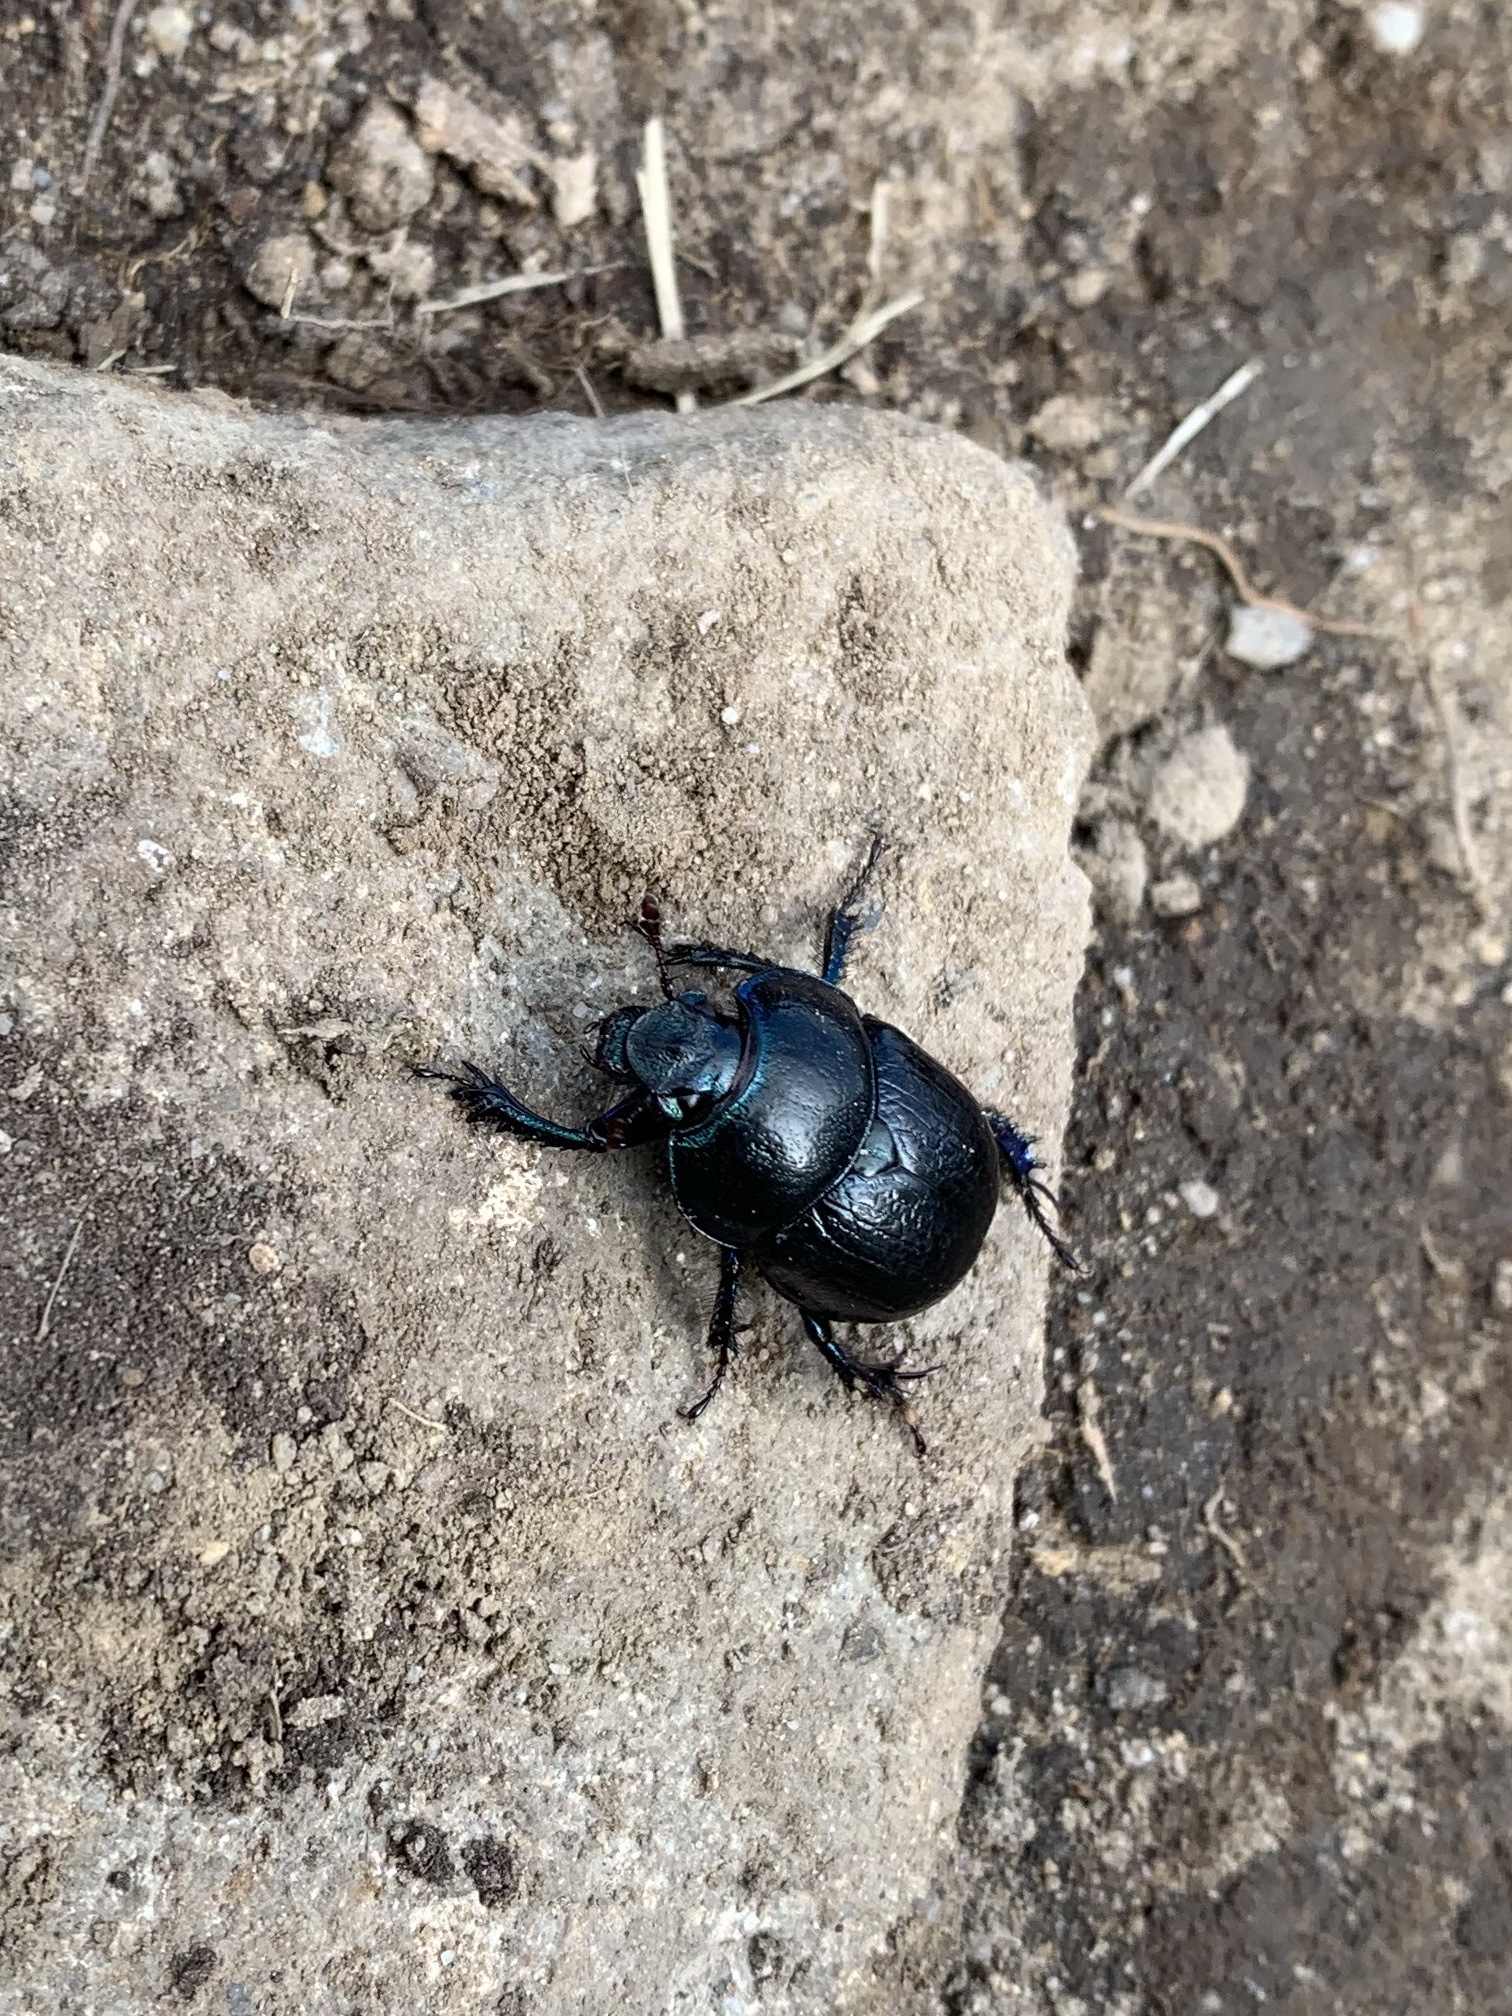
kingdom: Animalia
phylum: Arthropoda
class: Insecta
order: Coleoptera
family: Geotrupidae
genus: Anoplotrupes
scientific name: Anoplotrupes stercorosus
